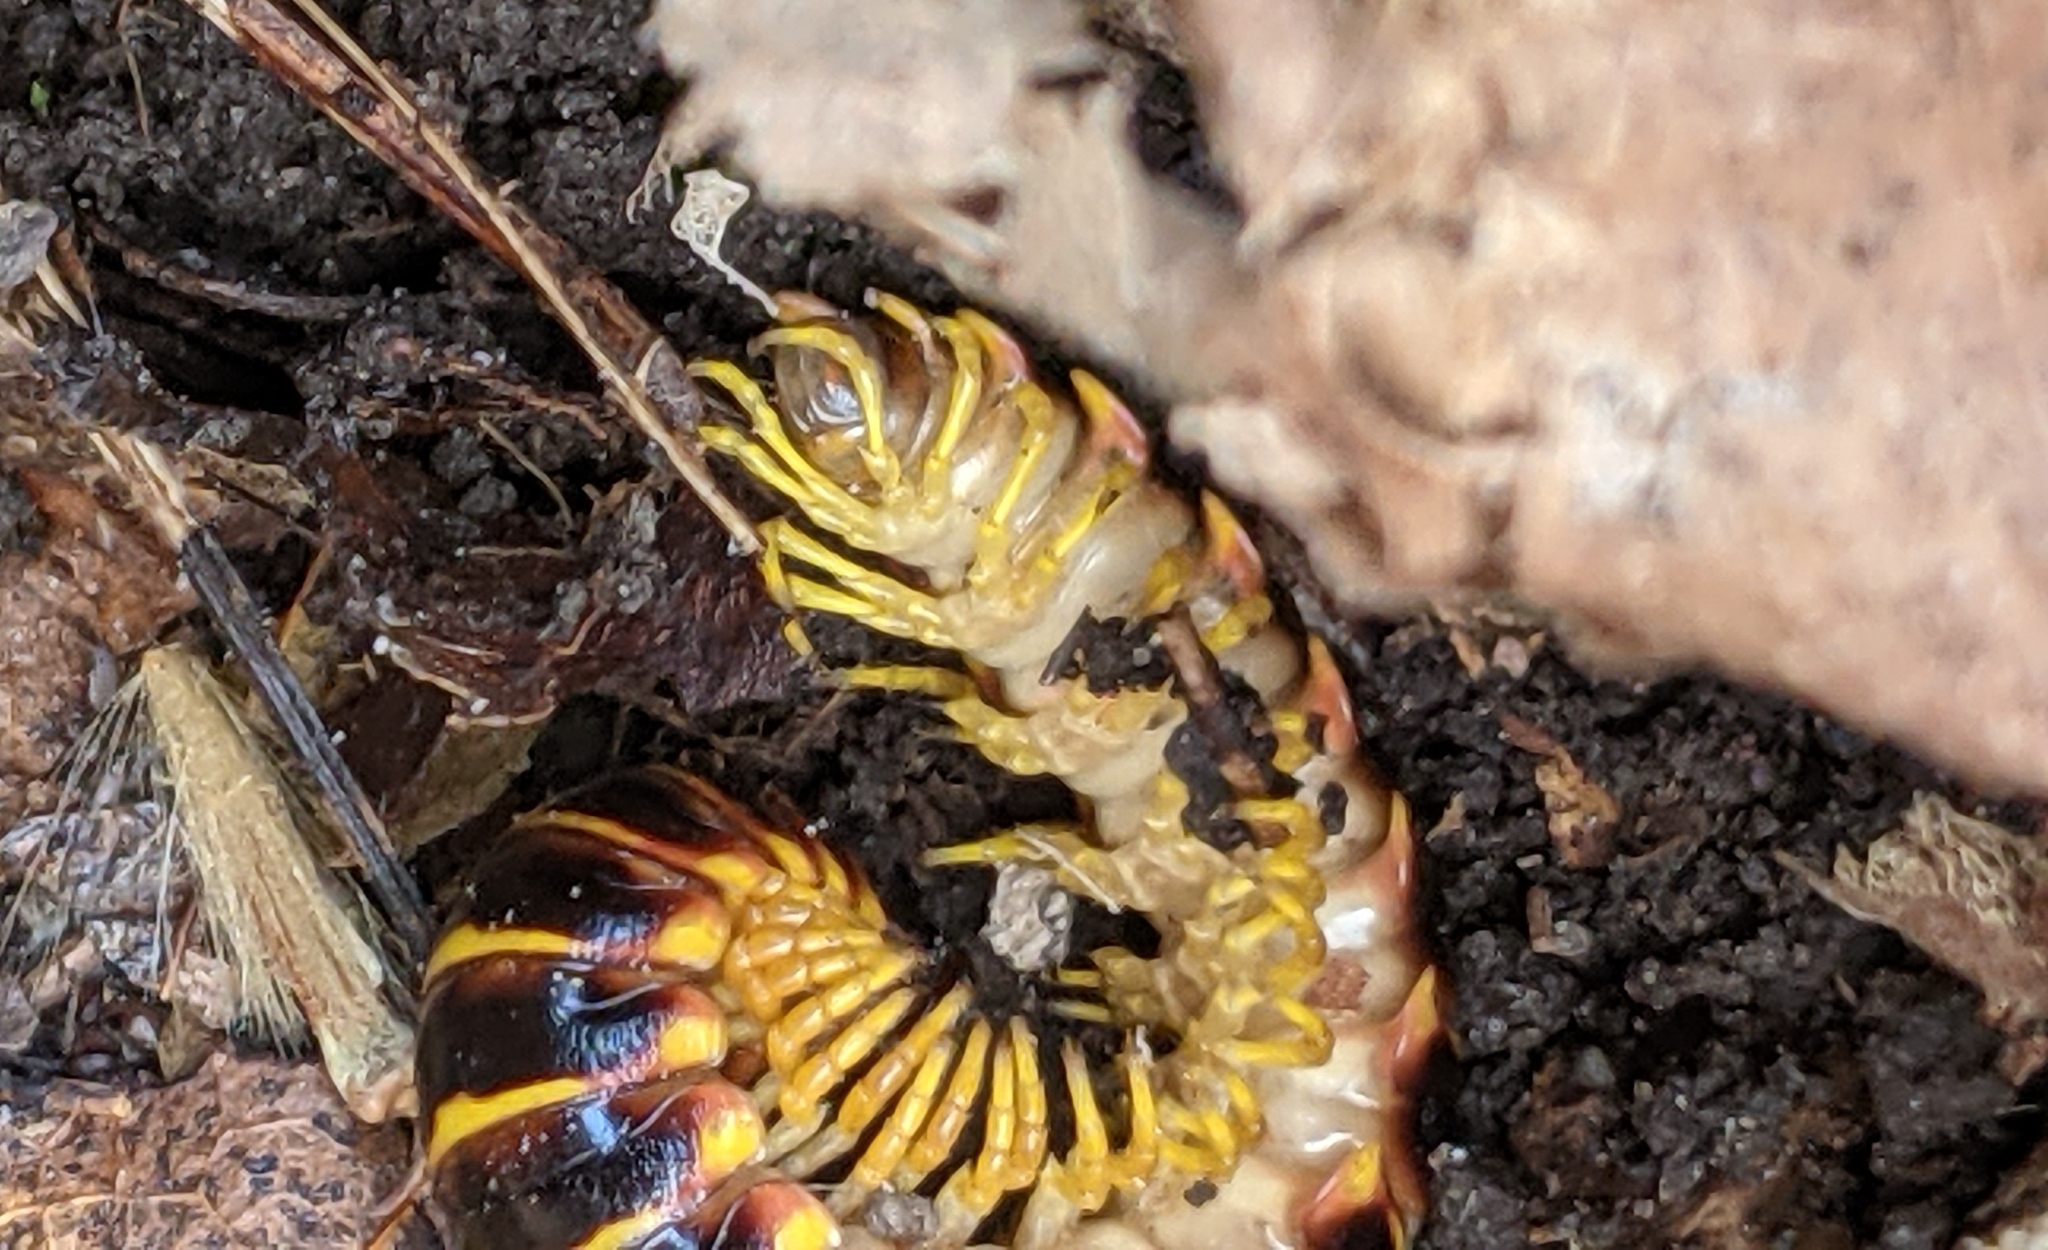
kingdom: Animalia
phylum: Arthropoda
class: Diplopoda
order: Polydesmida
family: Xystodesmidae
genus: Apheloria
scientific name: Apheloria virginiensis
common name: Black-and-gold flat millipede
